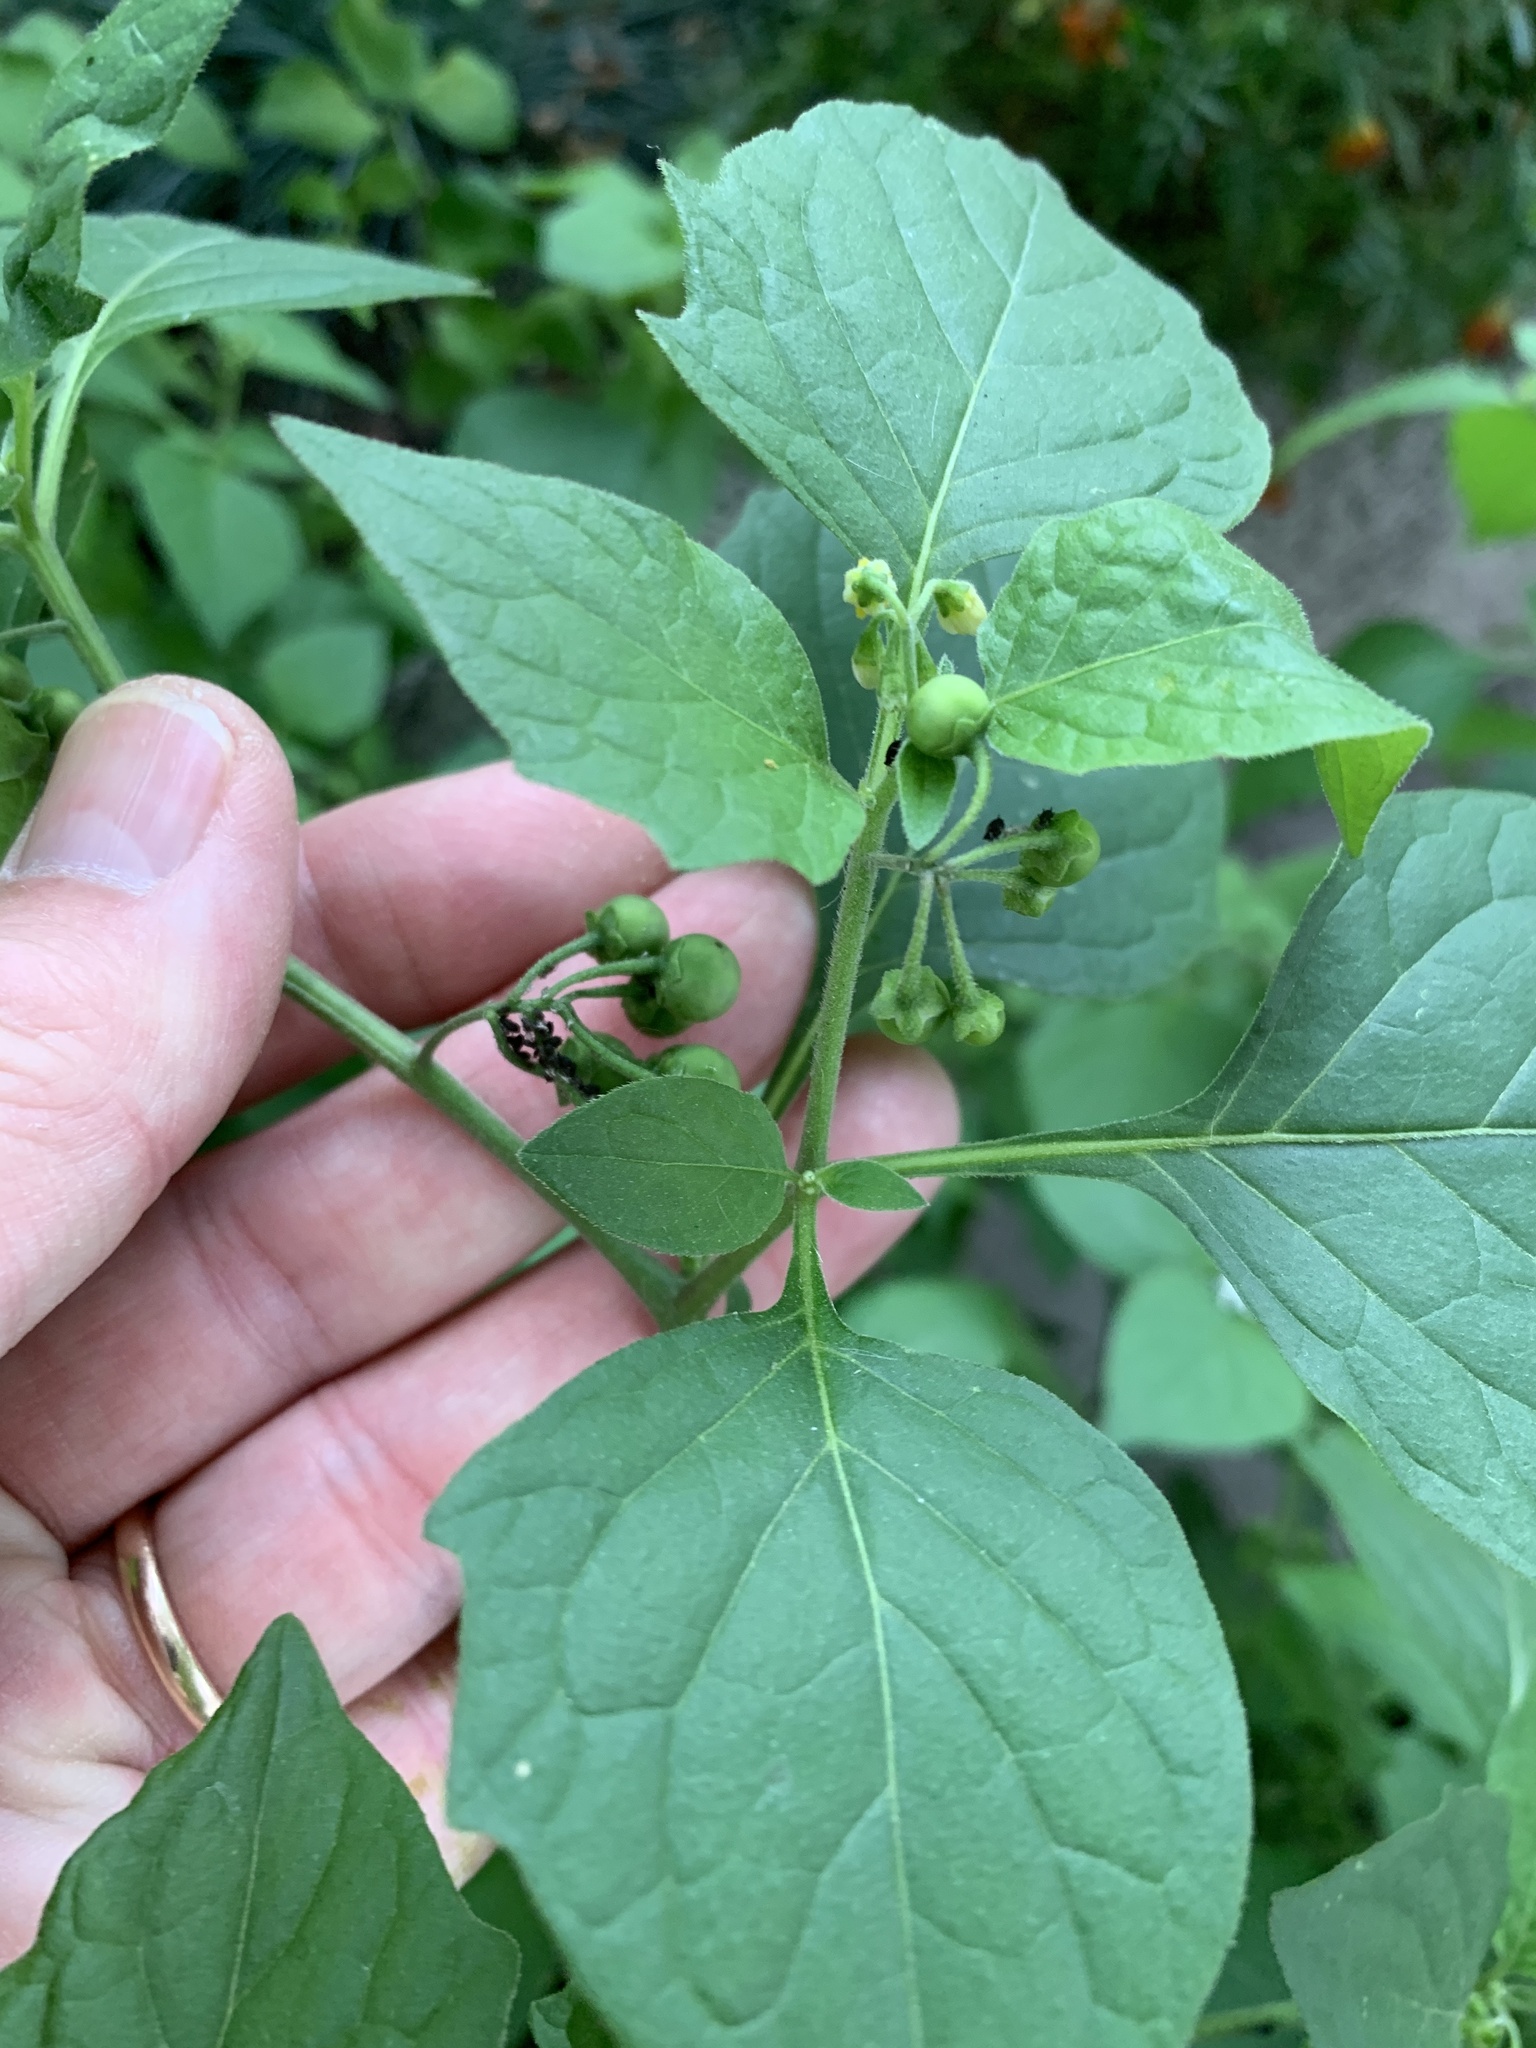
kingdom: Plantae
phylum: Tracheophyta
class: Magnoliopsida
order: Solanales
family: Solanaceae
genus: Solanum
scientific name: Solanum nigrum
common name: Black nightshade
